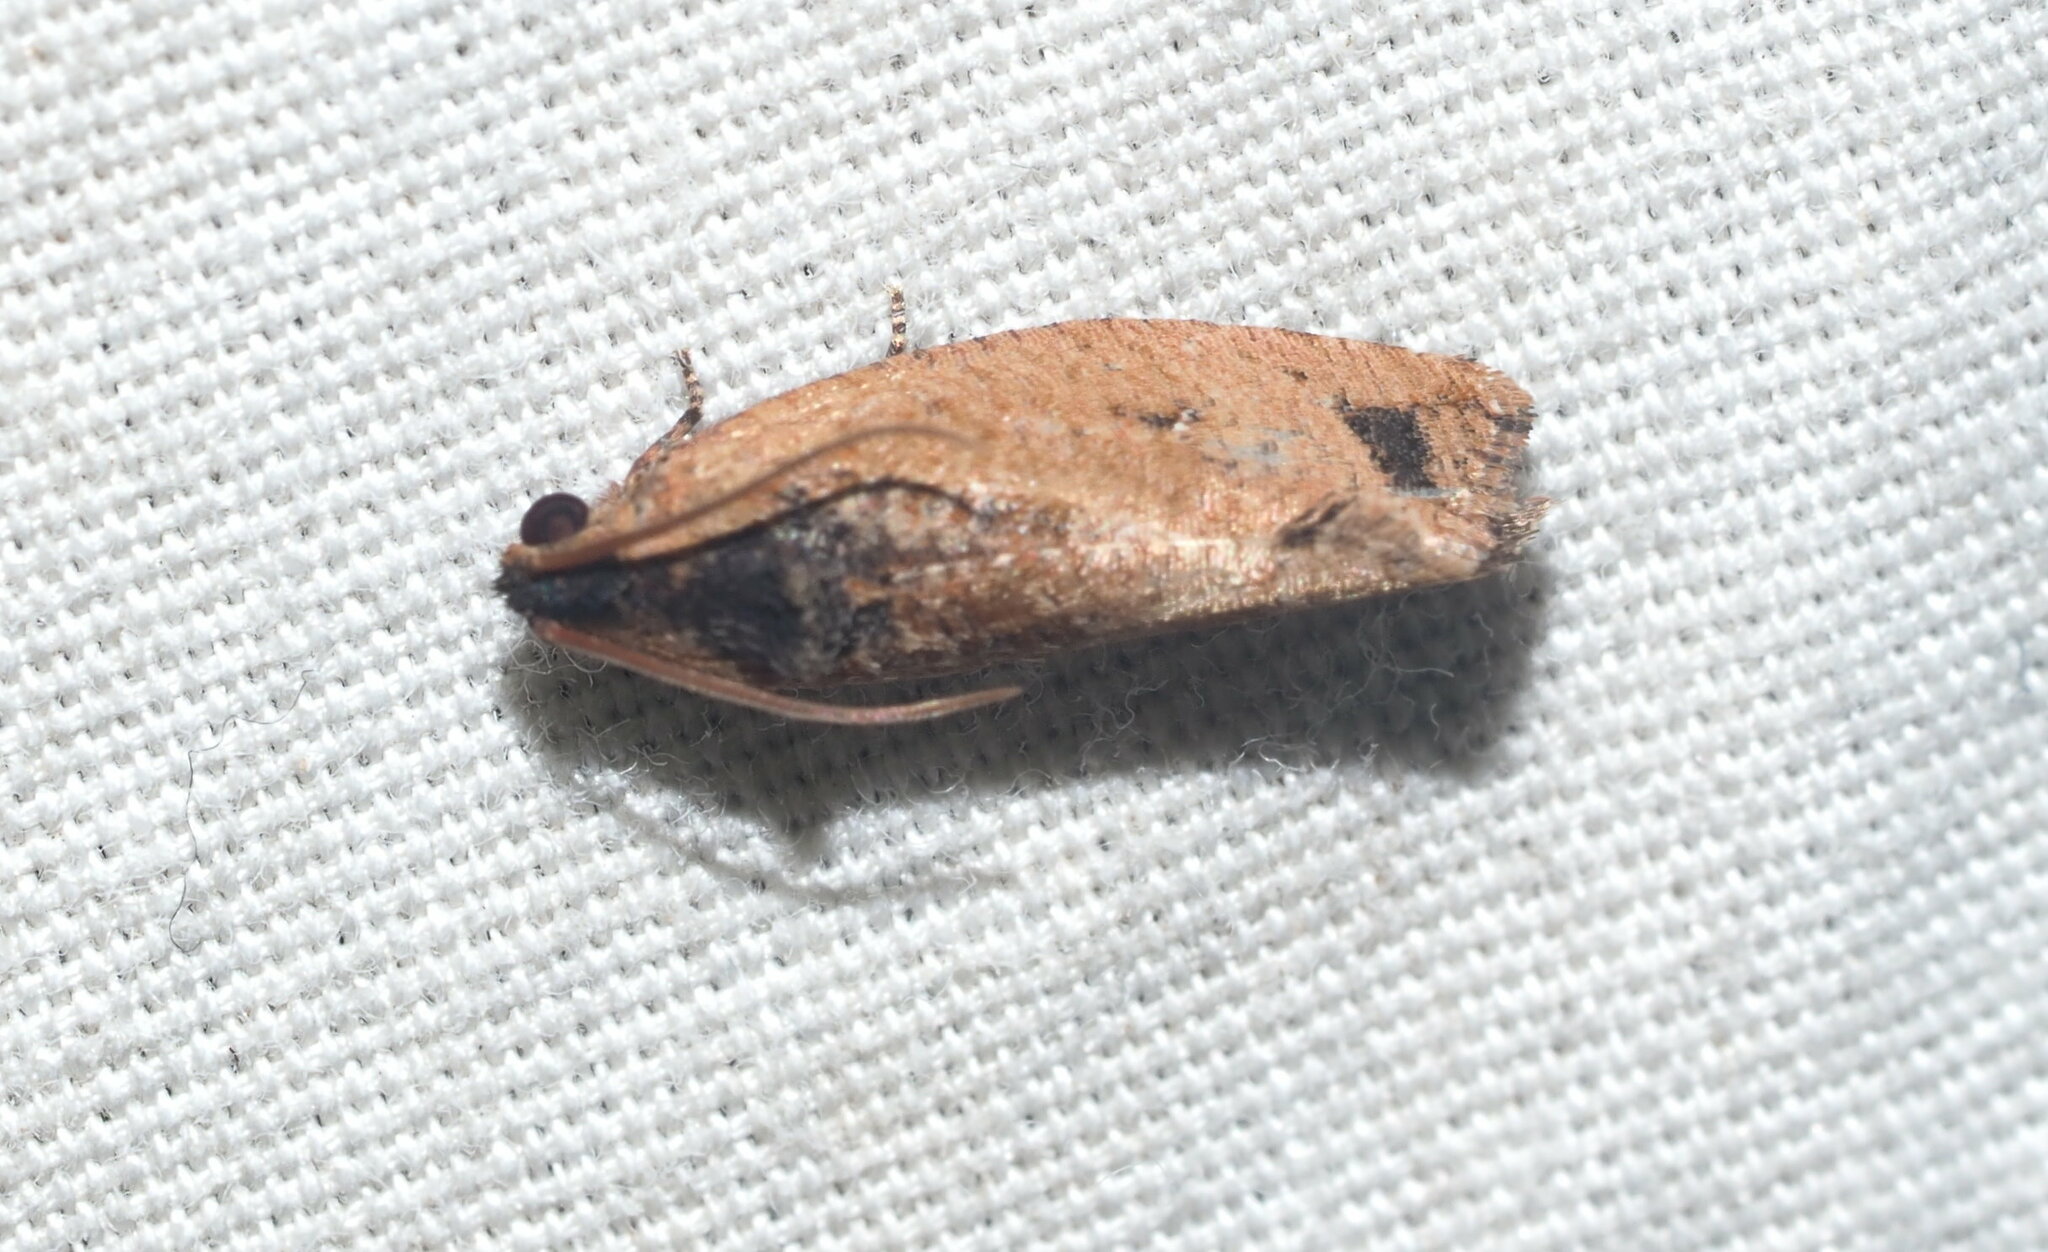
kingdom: Animalia
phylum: Arthropoda
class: Insecta
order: Lepidoptera
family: Tortricidae
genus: Cryptophlebia
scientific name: Cryptophlebia illepida
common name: Moth
